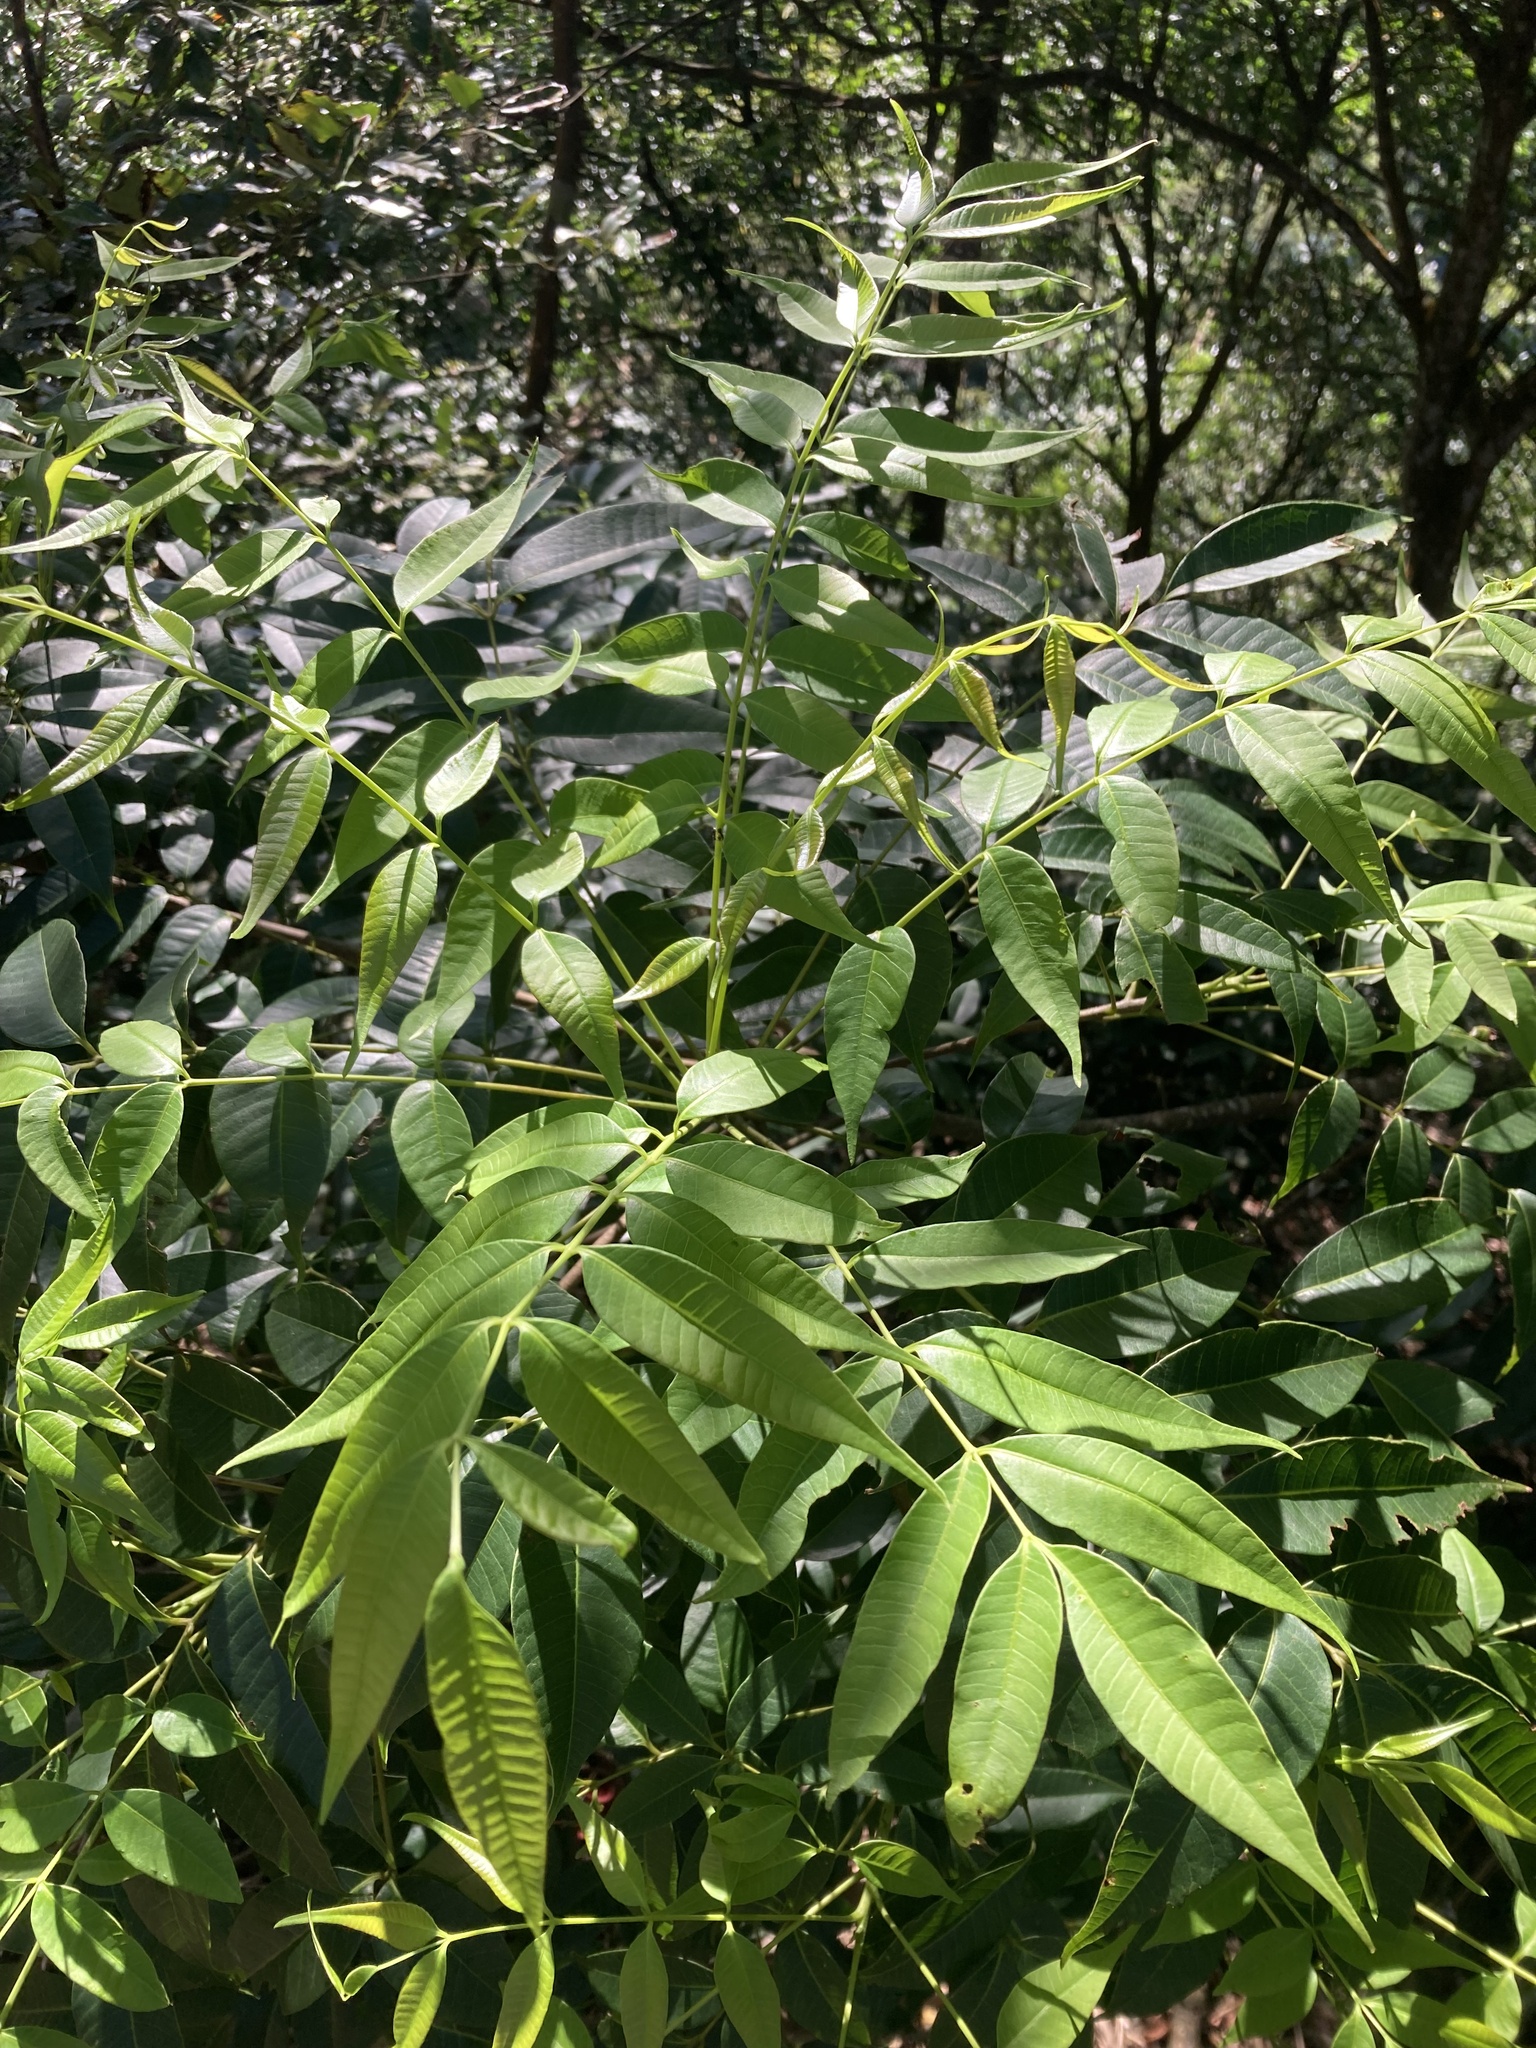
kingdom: Plantae
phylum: Tracheophyta
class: Magnoliopsida
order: Sapindales
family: Meliaceae
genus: Toona
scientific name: Toona sinensis
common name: Red toon
